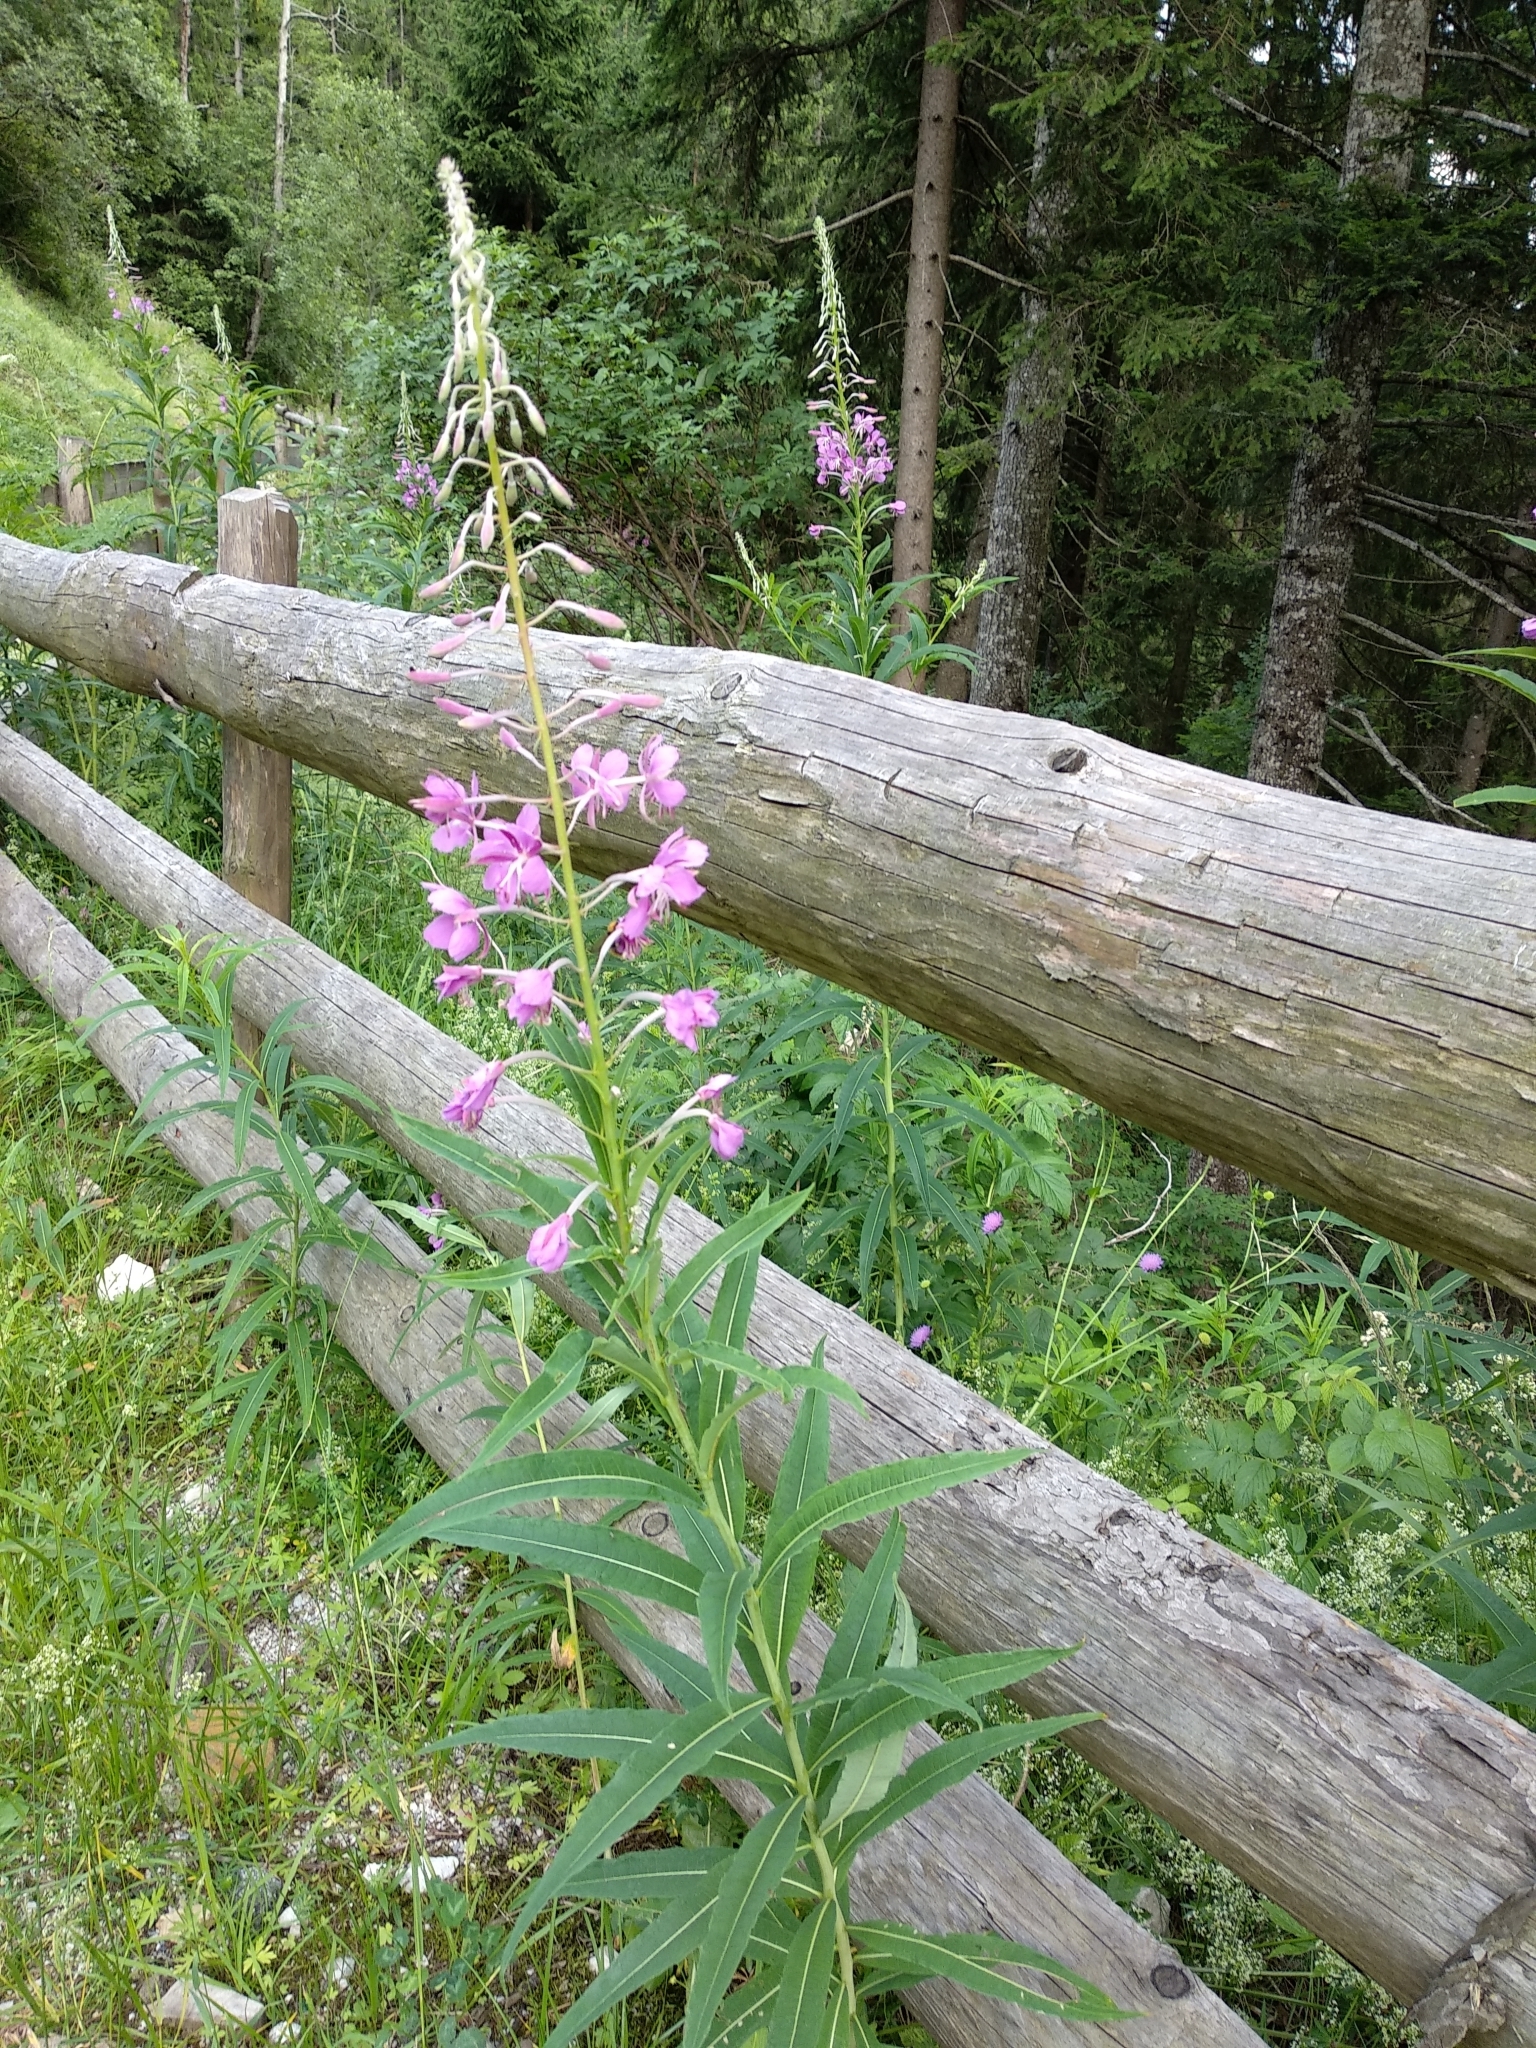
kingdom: Plantae
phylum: Tracheophyta
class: Magnoliopsida
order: Myrtales
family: Onagraceae
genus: Chamaenerion
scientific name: Chamaenerion angustifolium
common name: Fireweed
